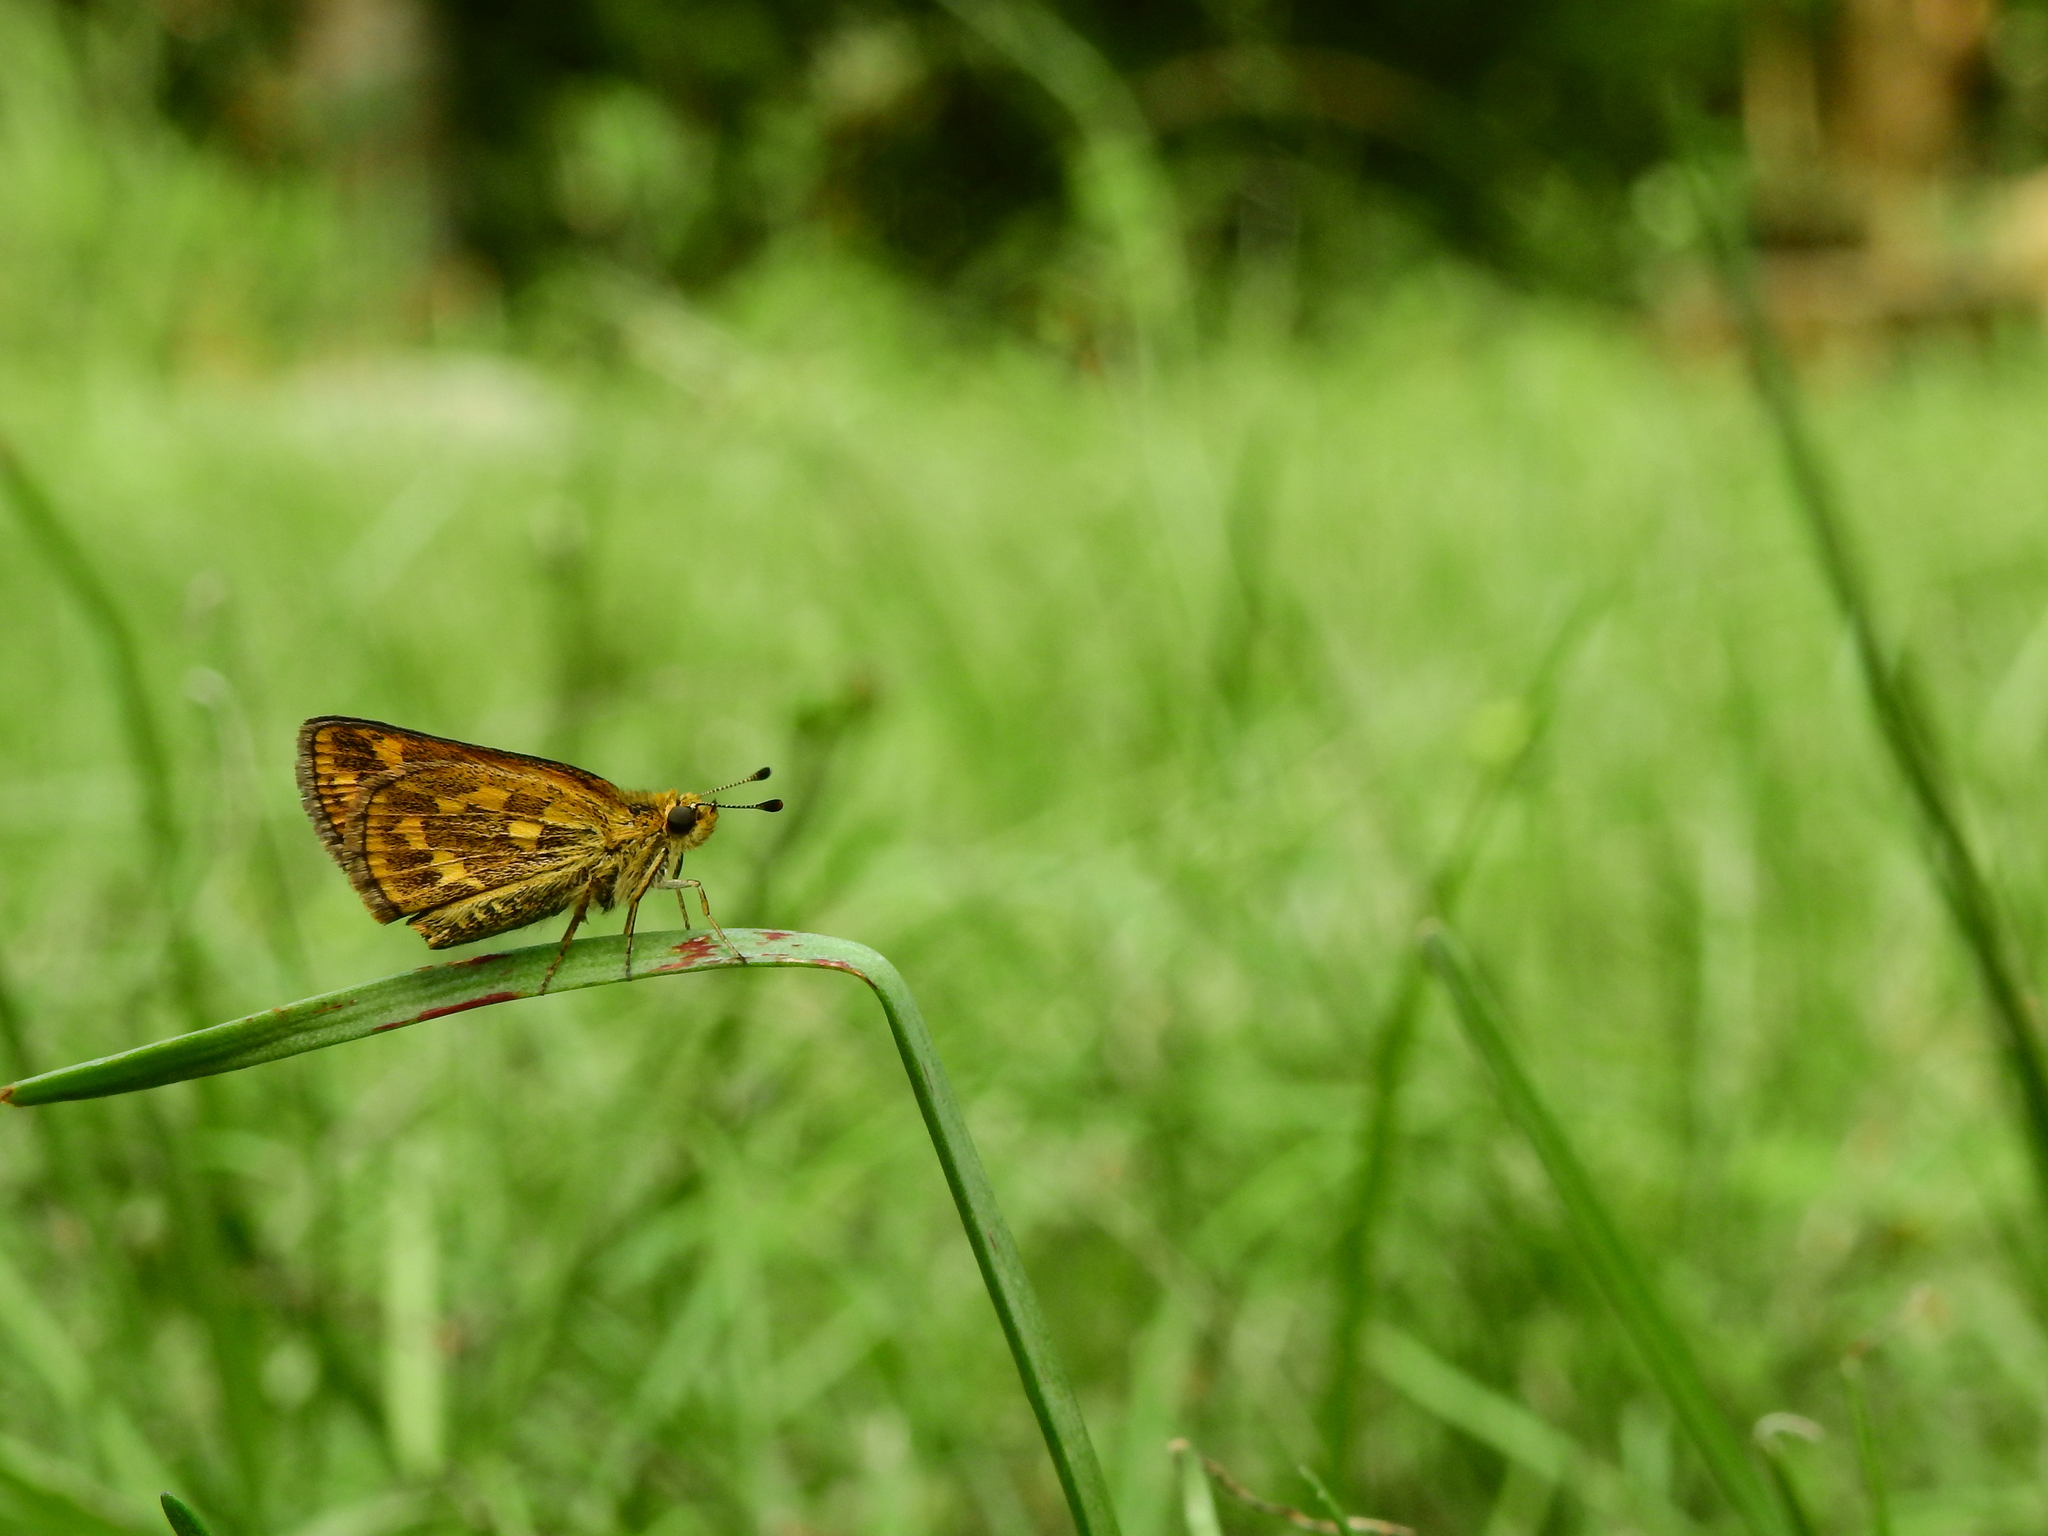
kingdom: Animalia
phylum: Arthropoda
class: Insecta
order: Lepidoptera
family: Hesperiidae
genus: Taractrocera
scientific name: Taractrocera ceramas
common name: Tamil grass dart
